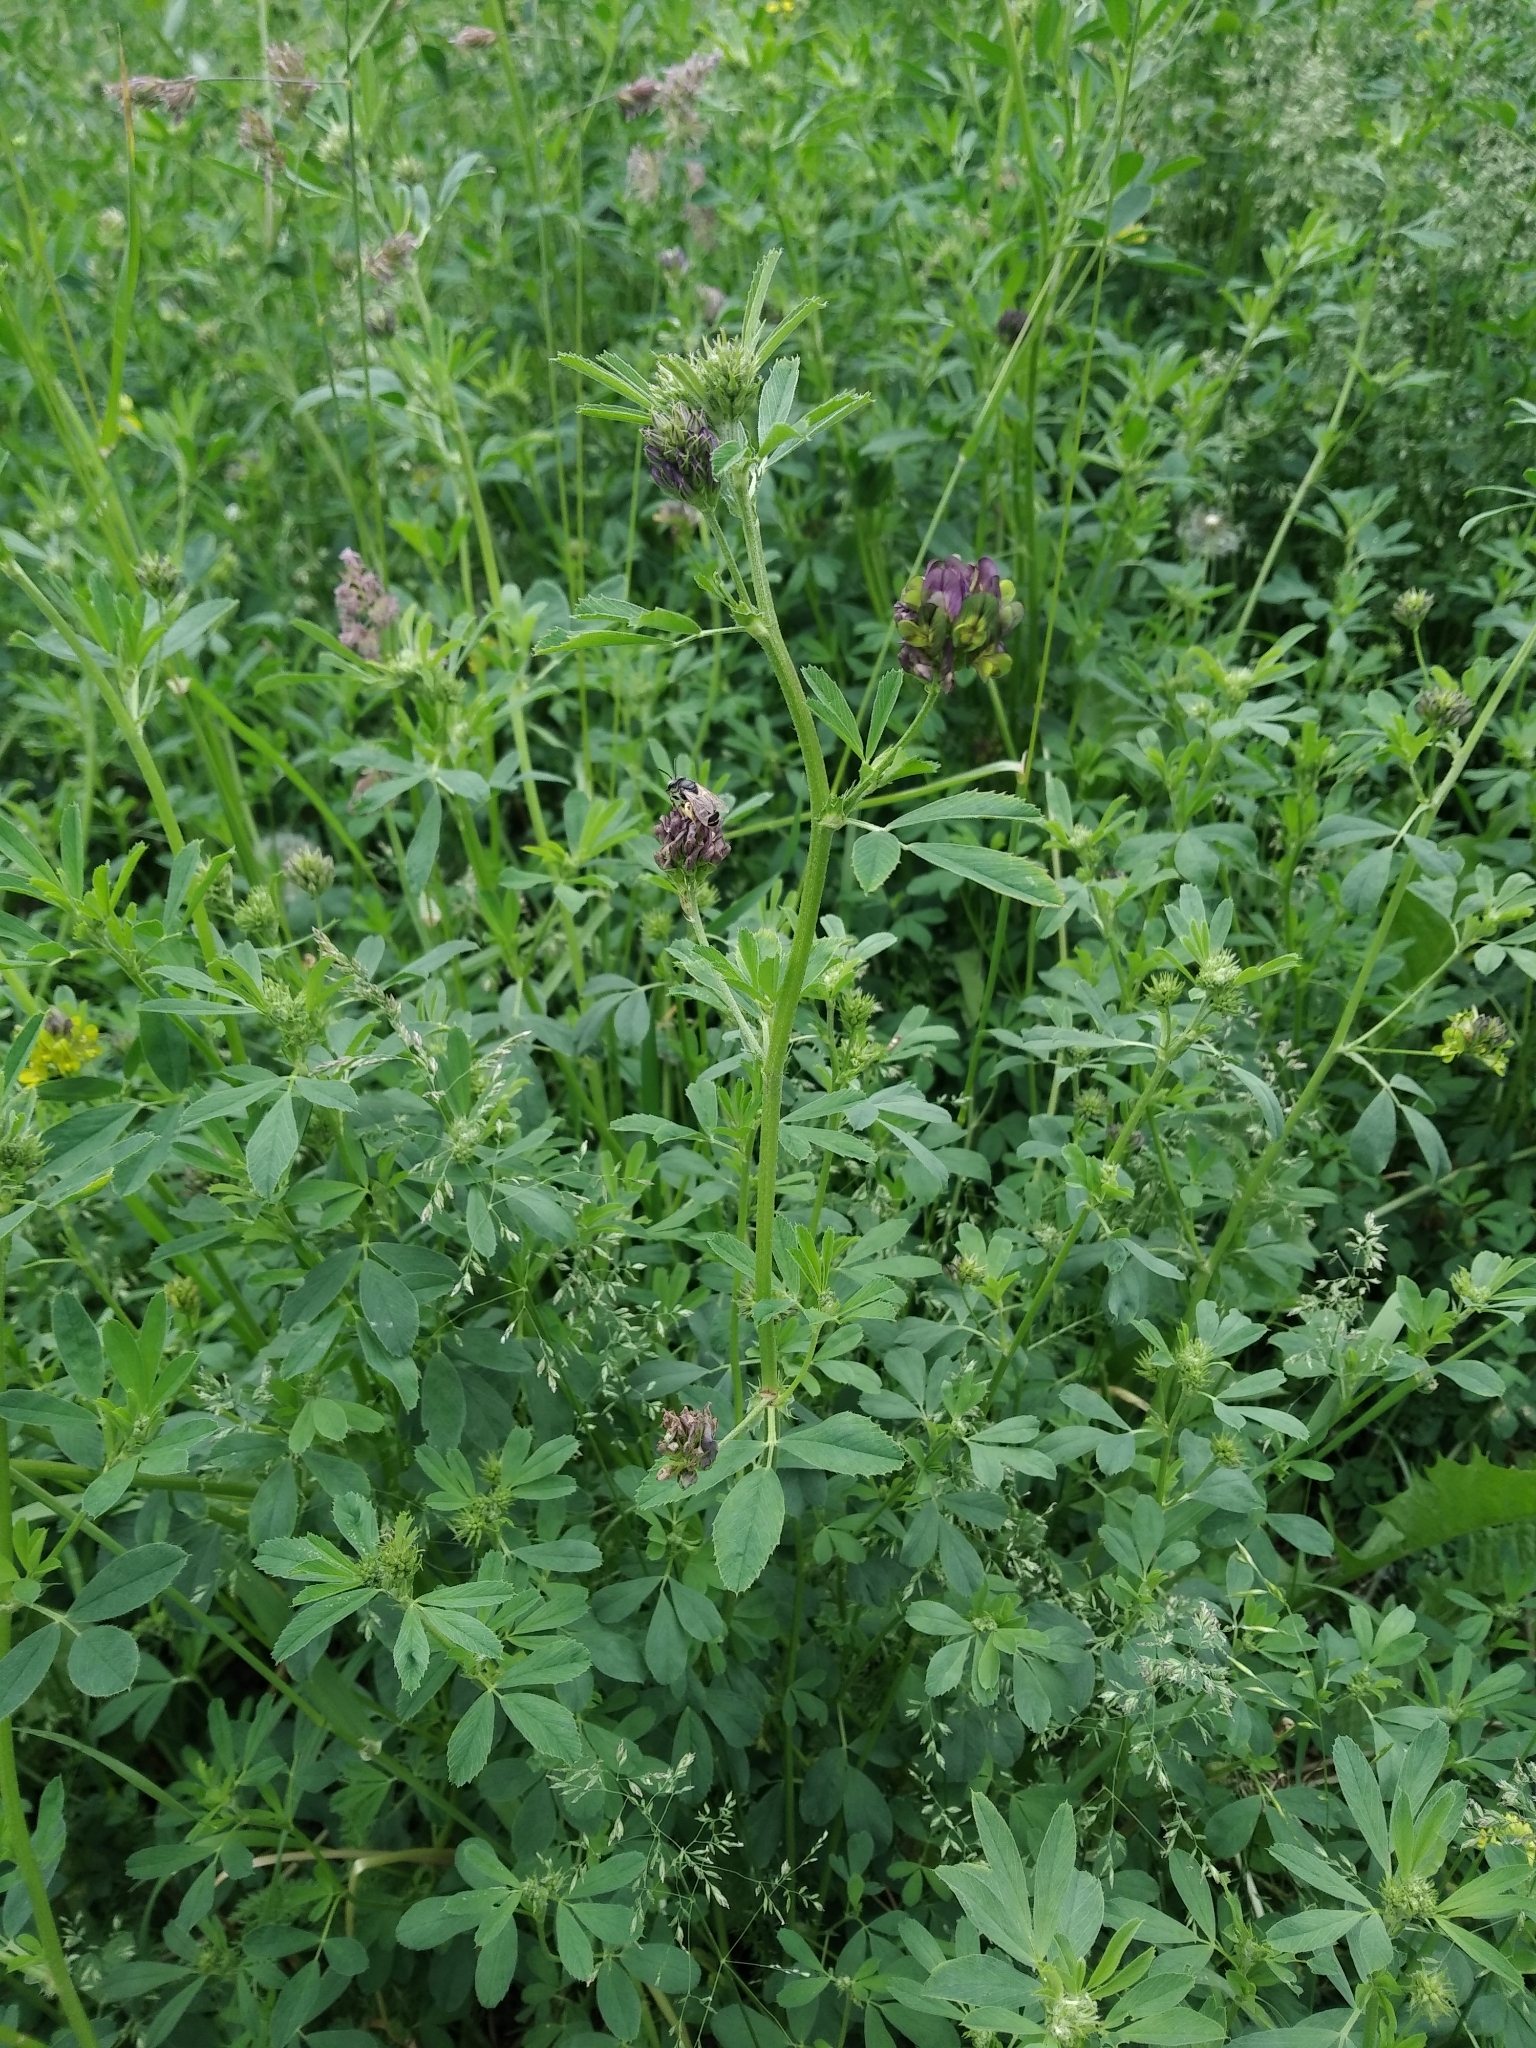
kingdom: Plantae
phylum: Tracheophyta
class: Magnoliopsida
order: Fabales
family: Fabaceae
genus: Medicago
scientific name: Medicago varia
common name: Sand lucerne
